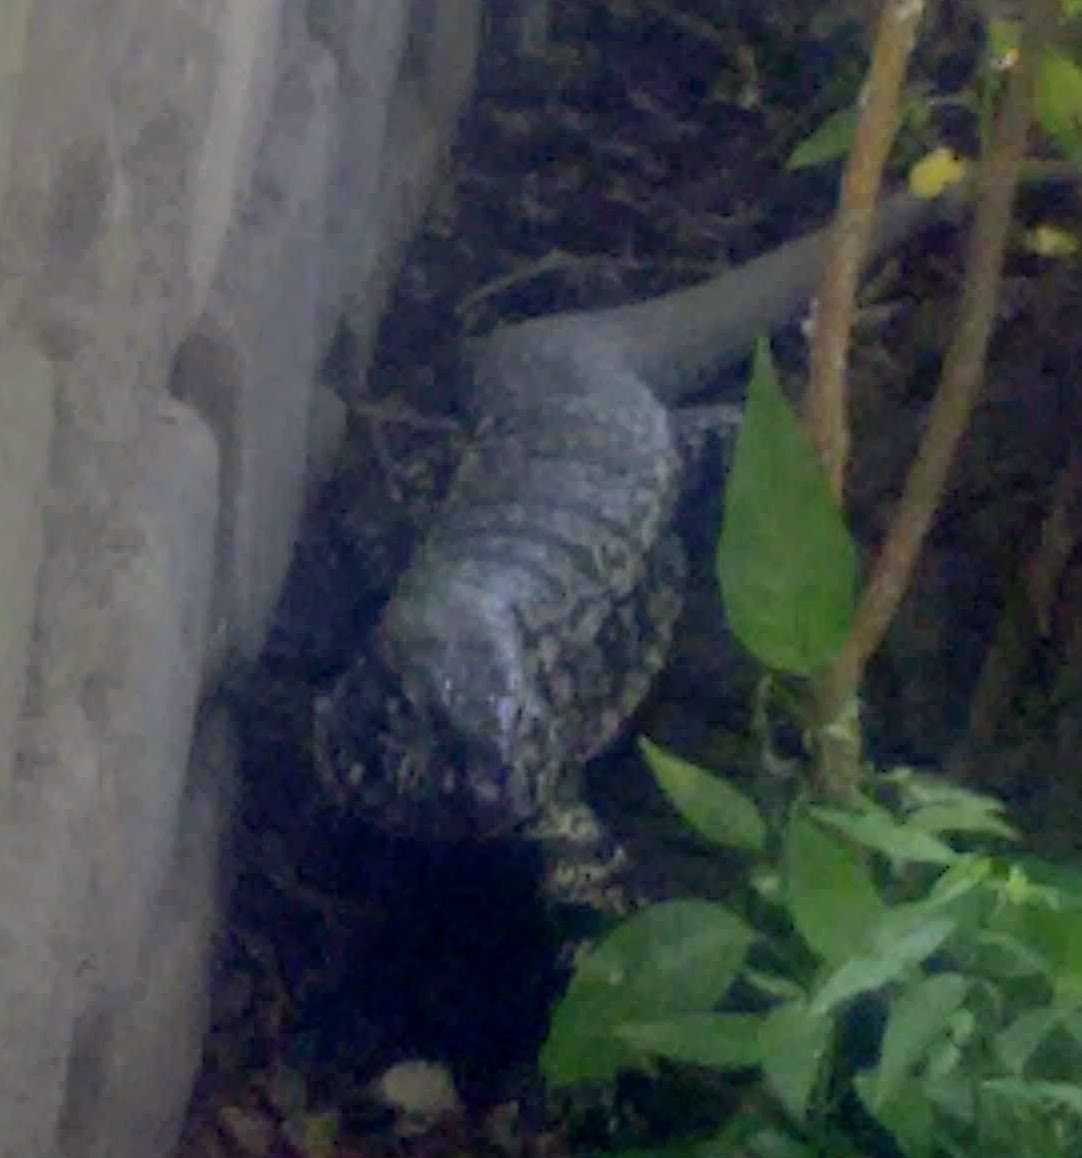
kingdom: Animalia
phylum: Chordata
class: Squamata
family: Teiidae
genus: Salvator
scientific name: Salvator merianae
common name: Argentine black and white tegu
